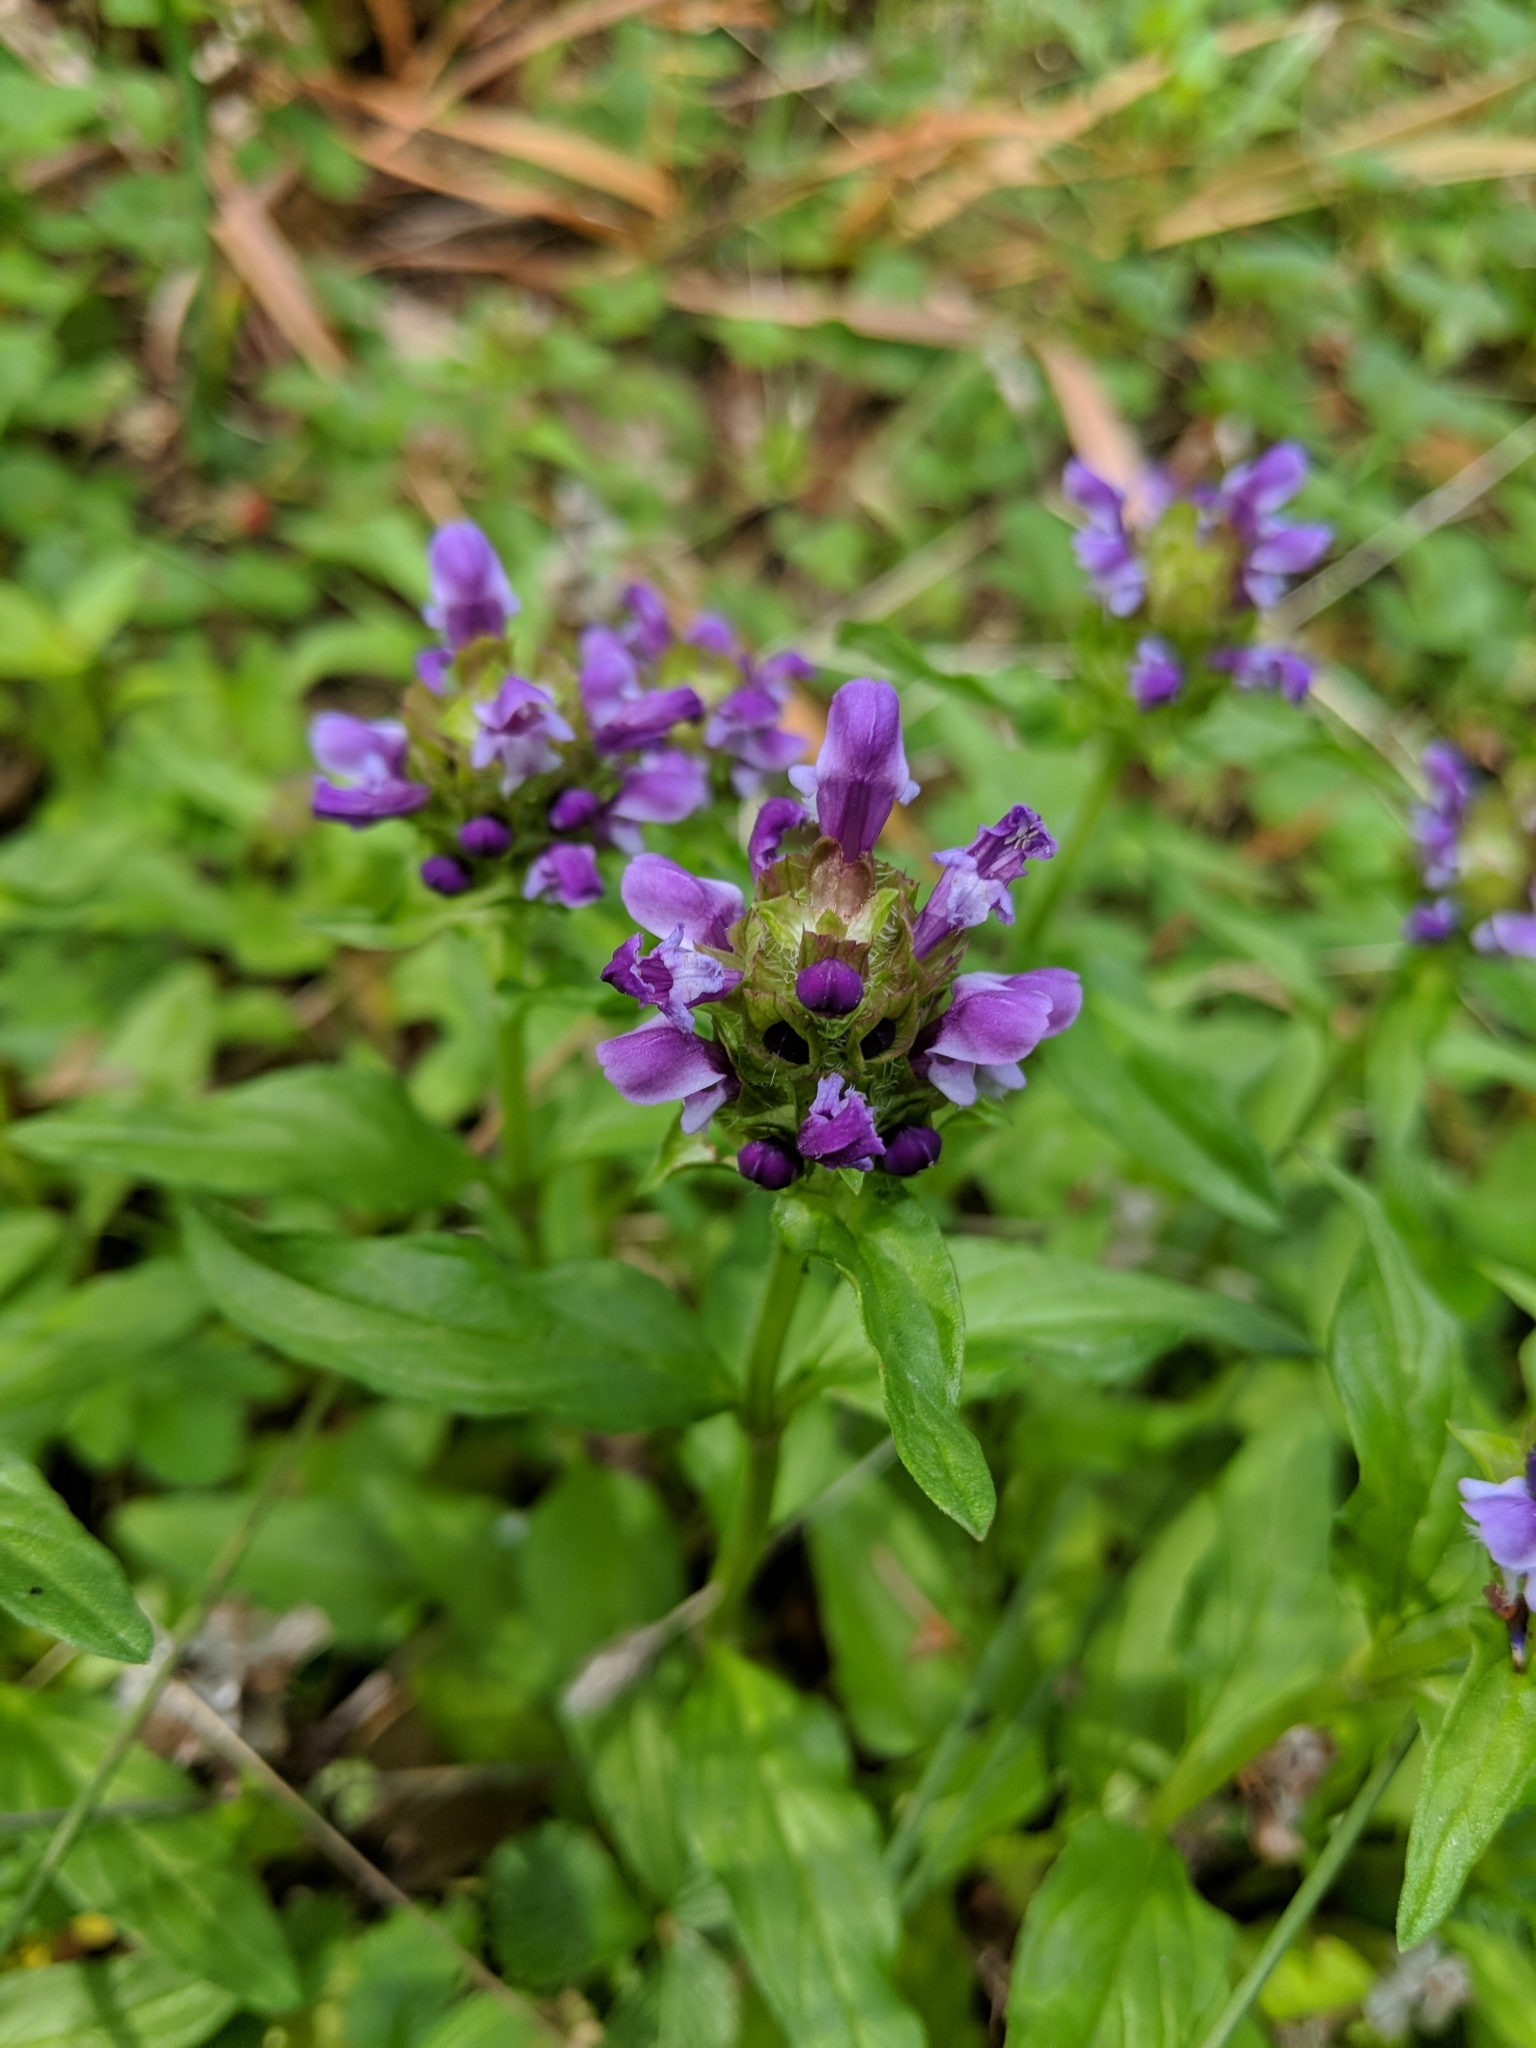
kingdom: Plantae
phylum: Tracheophyta
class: Magnoliopsida
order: Lamiales
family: Lamiaceae
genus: Prunella
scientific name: Prunella vulgaris
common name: Heal-all
